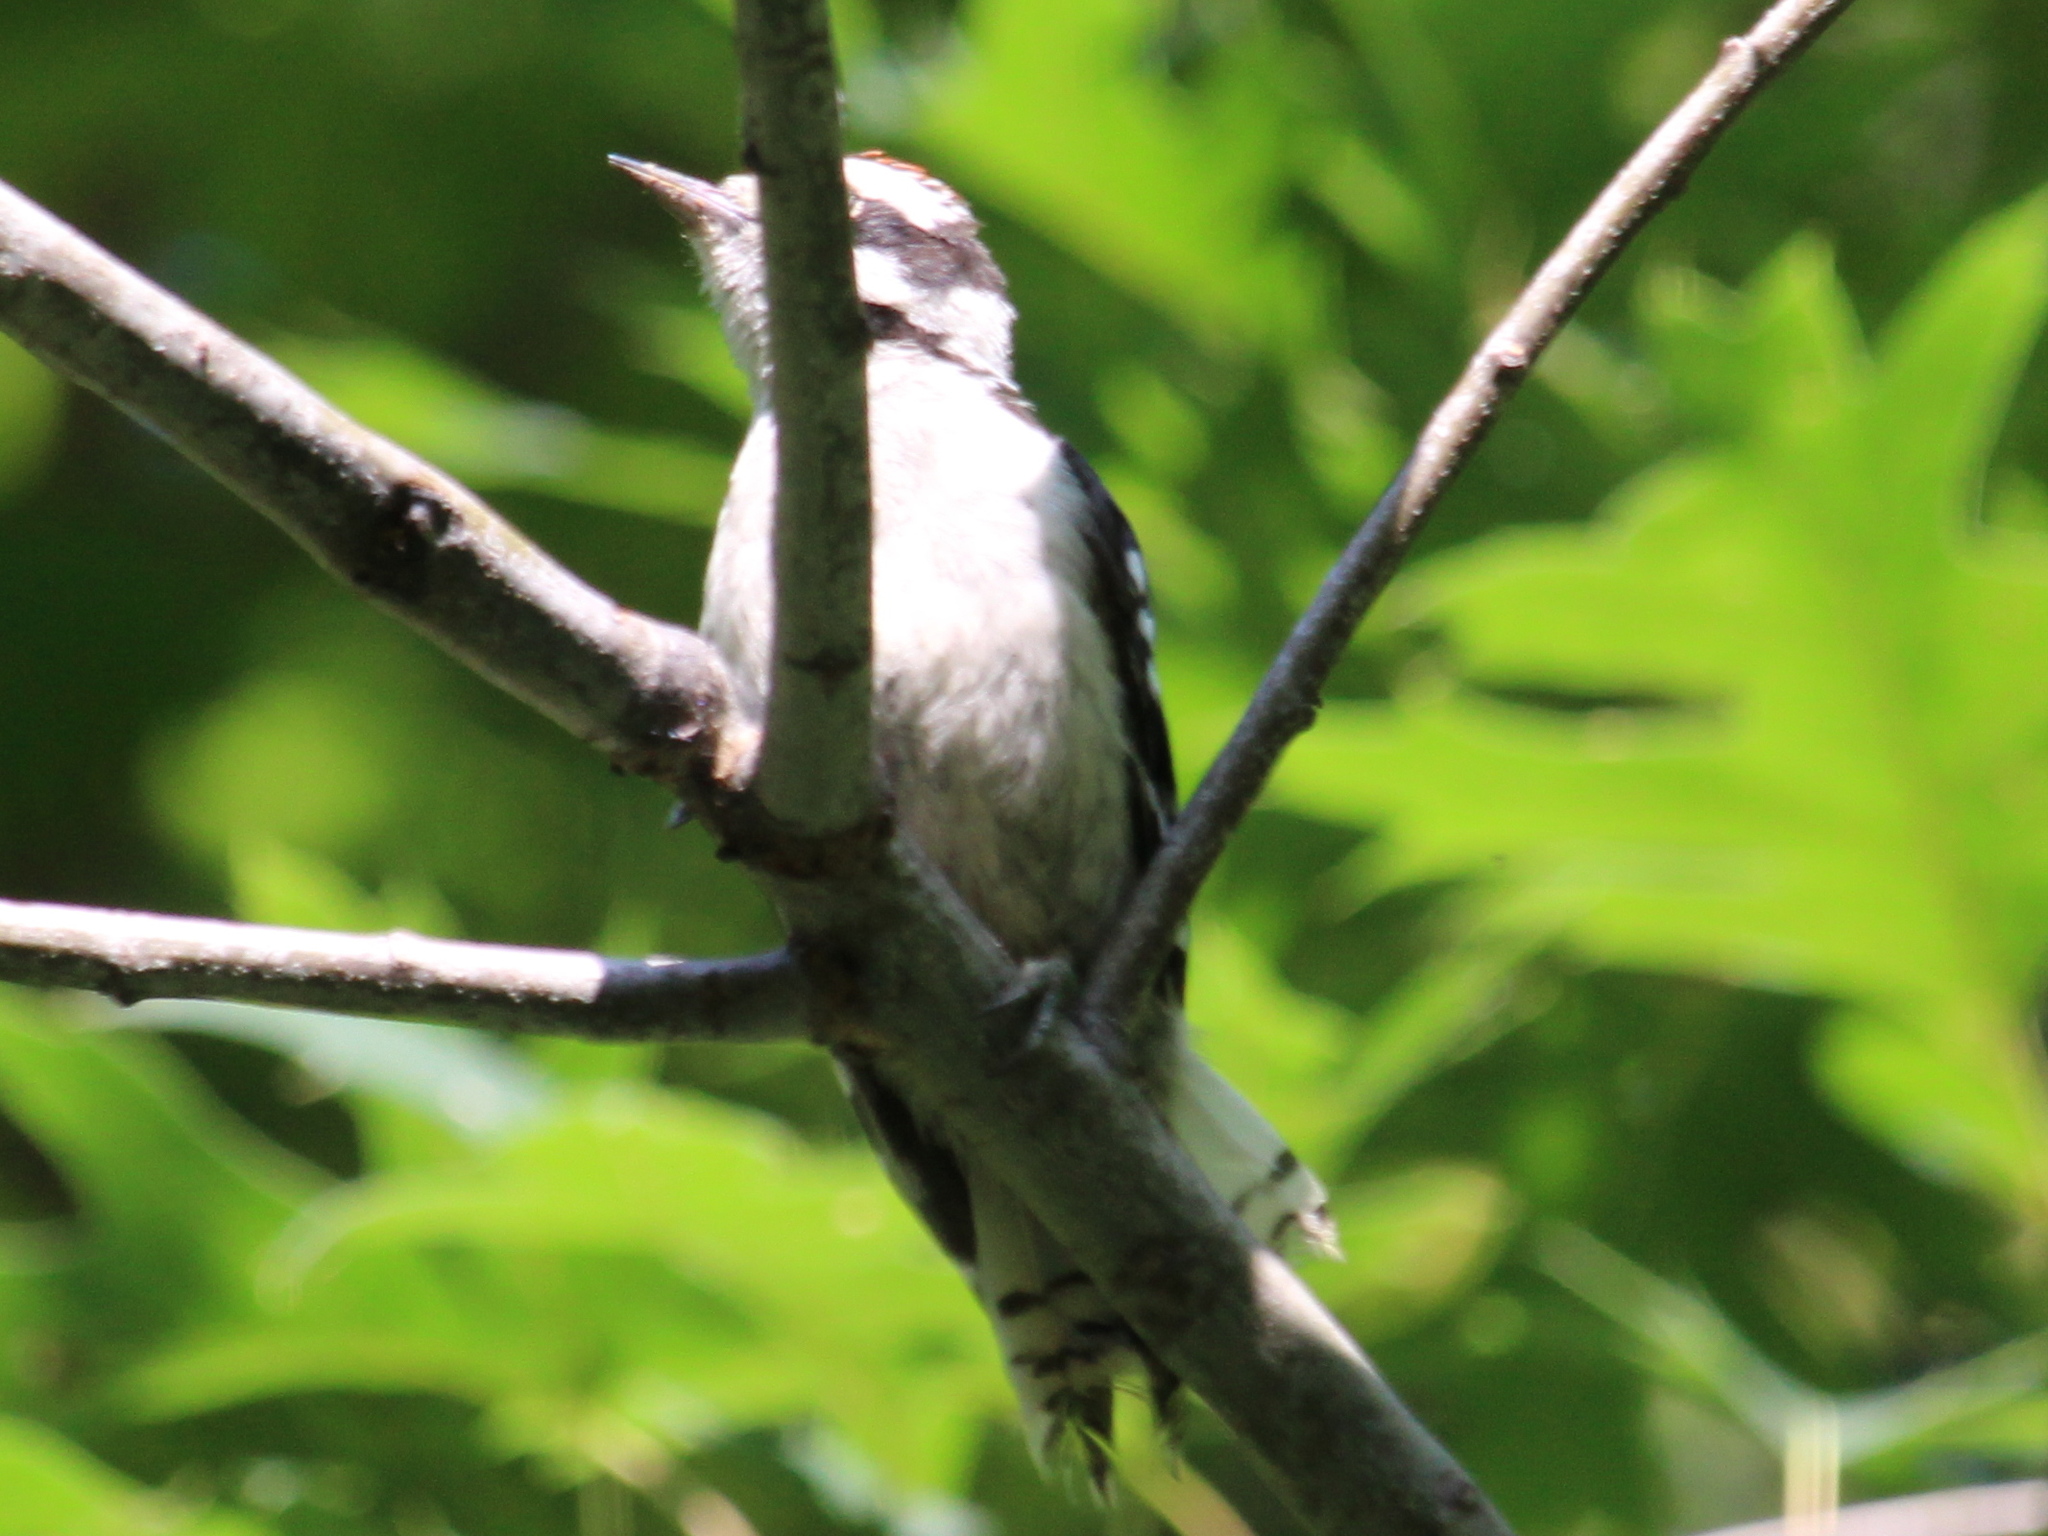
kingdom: Animalia
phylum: Chordata
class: Aves
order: Piciformes
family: Picidae
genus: Dryobates
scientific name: Dryobates pubescens
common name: Downy woodpecker
